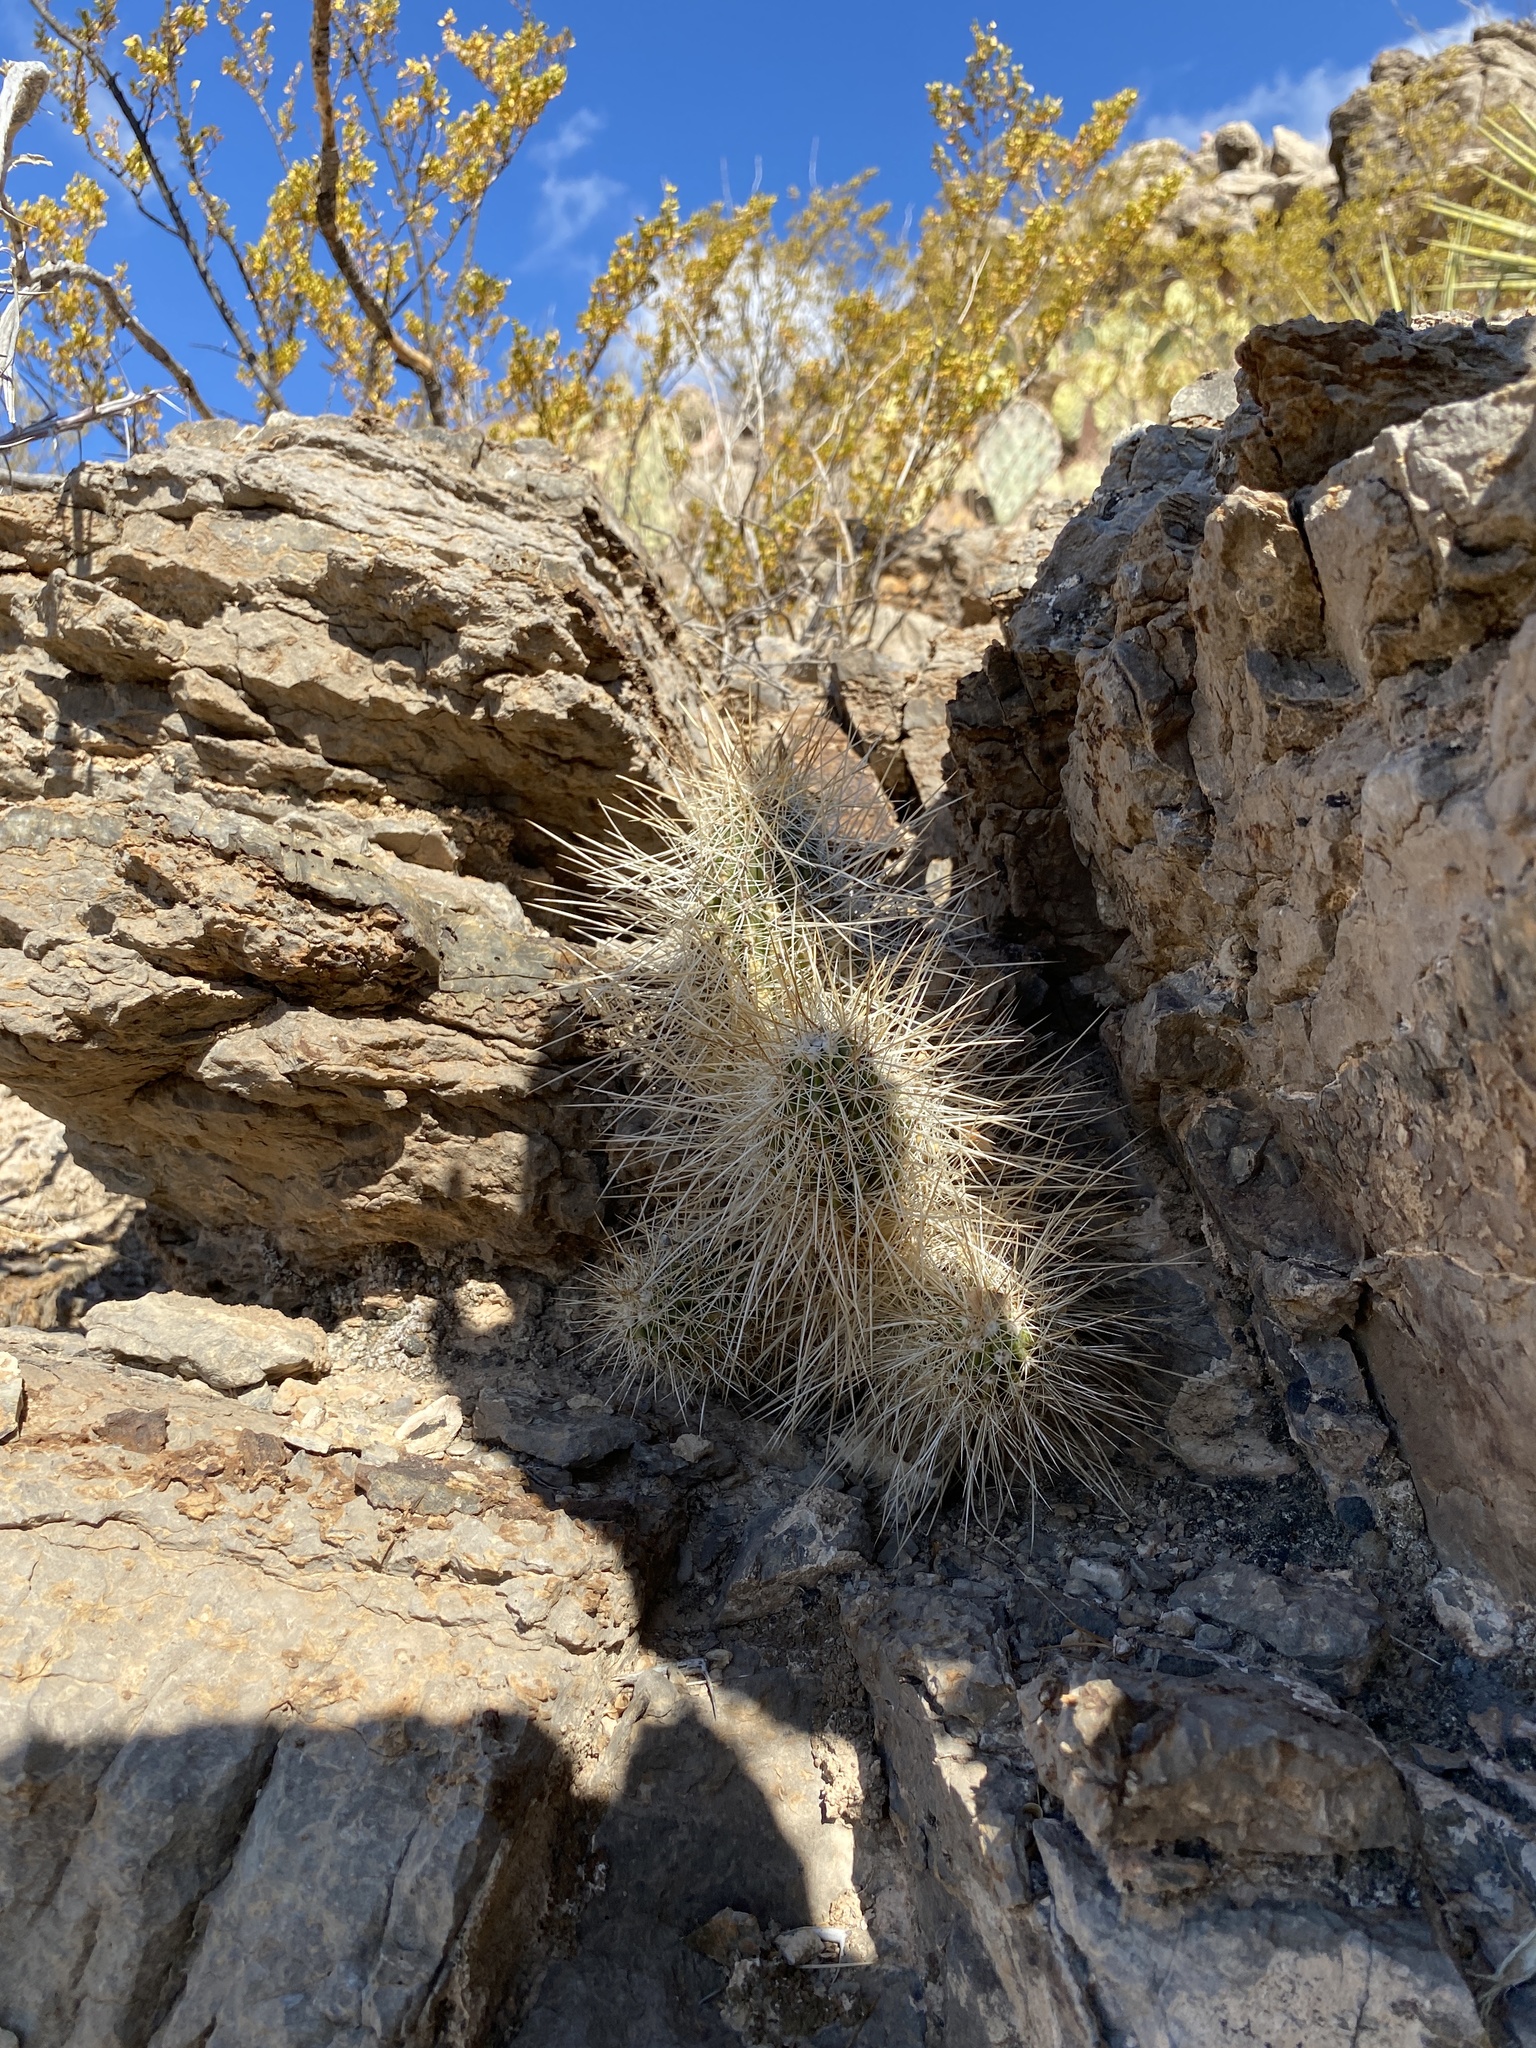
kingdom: Plantae
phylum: Tracheophyta
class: Magnoliopsida
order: Caryophyllales
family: Cactaceae
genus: Echinocereus
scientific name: Echinocereus stramineus
